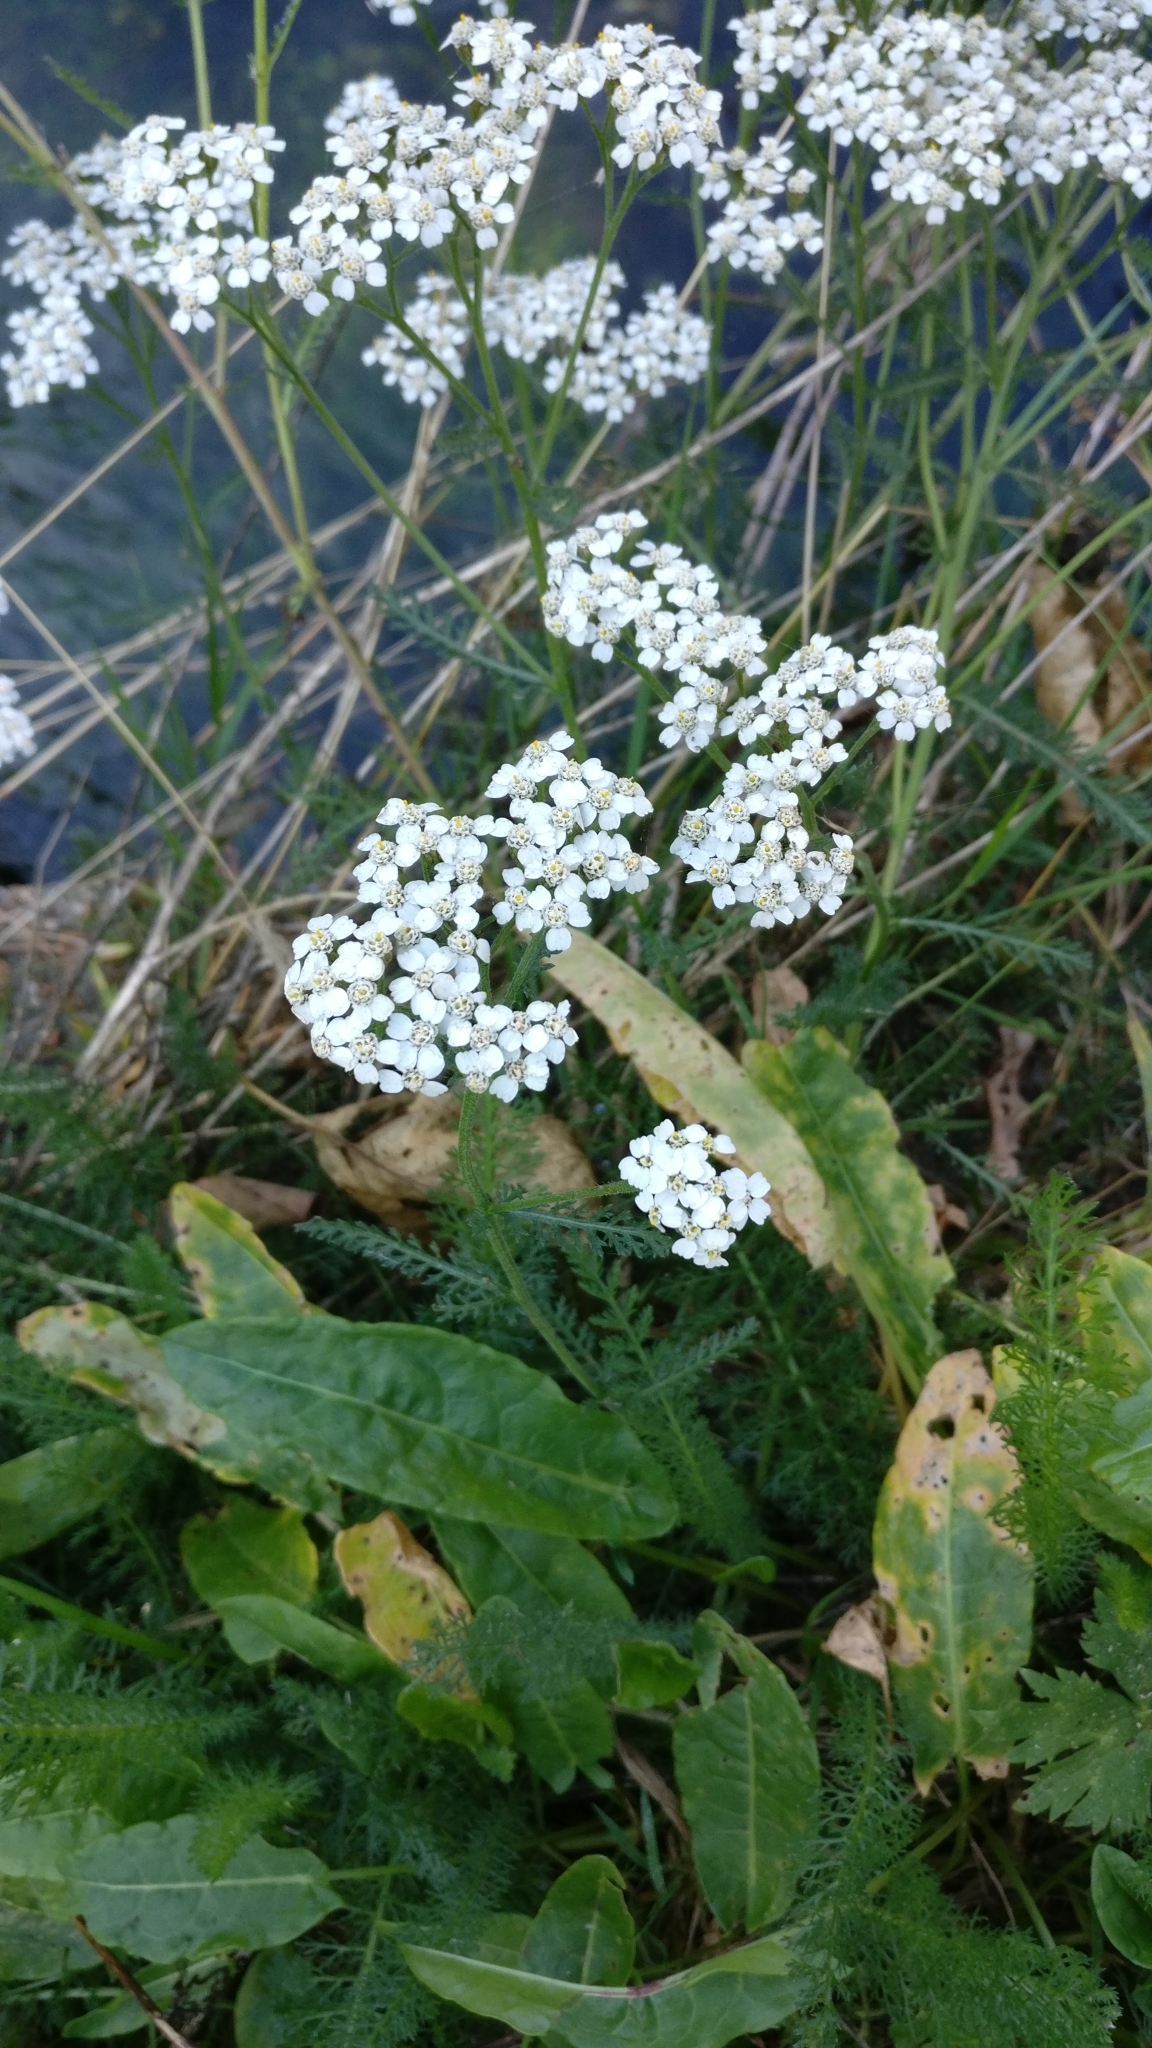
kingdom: Plantae
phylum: Tracheophyta
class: Magnoliopsida
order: Asterales
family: Asteraceae
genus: Achillea
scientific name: Achillea millefolium
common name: Yarrow
